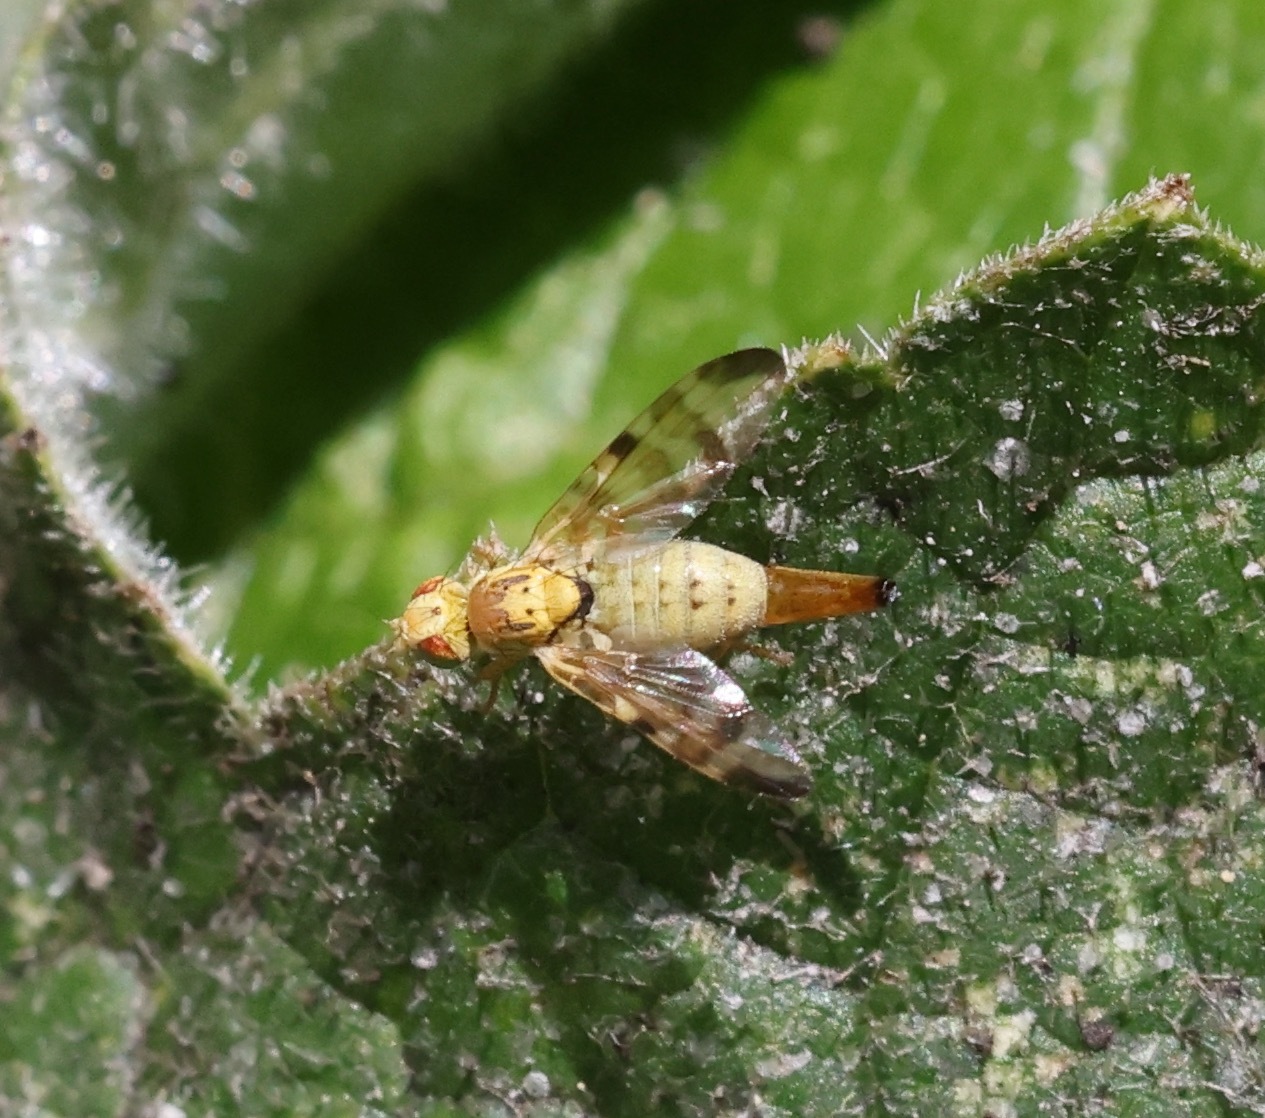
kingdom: Animalia
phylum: Arthropoda
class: Insecta
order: Diptera
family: Tephritidae
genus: Terellia
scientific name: Terellia tussilaginis
